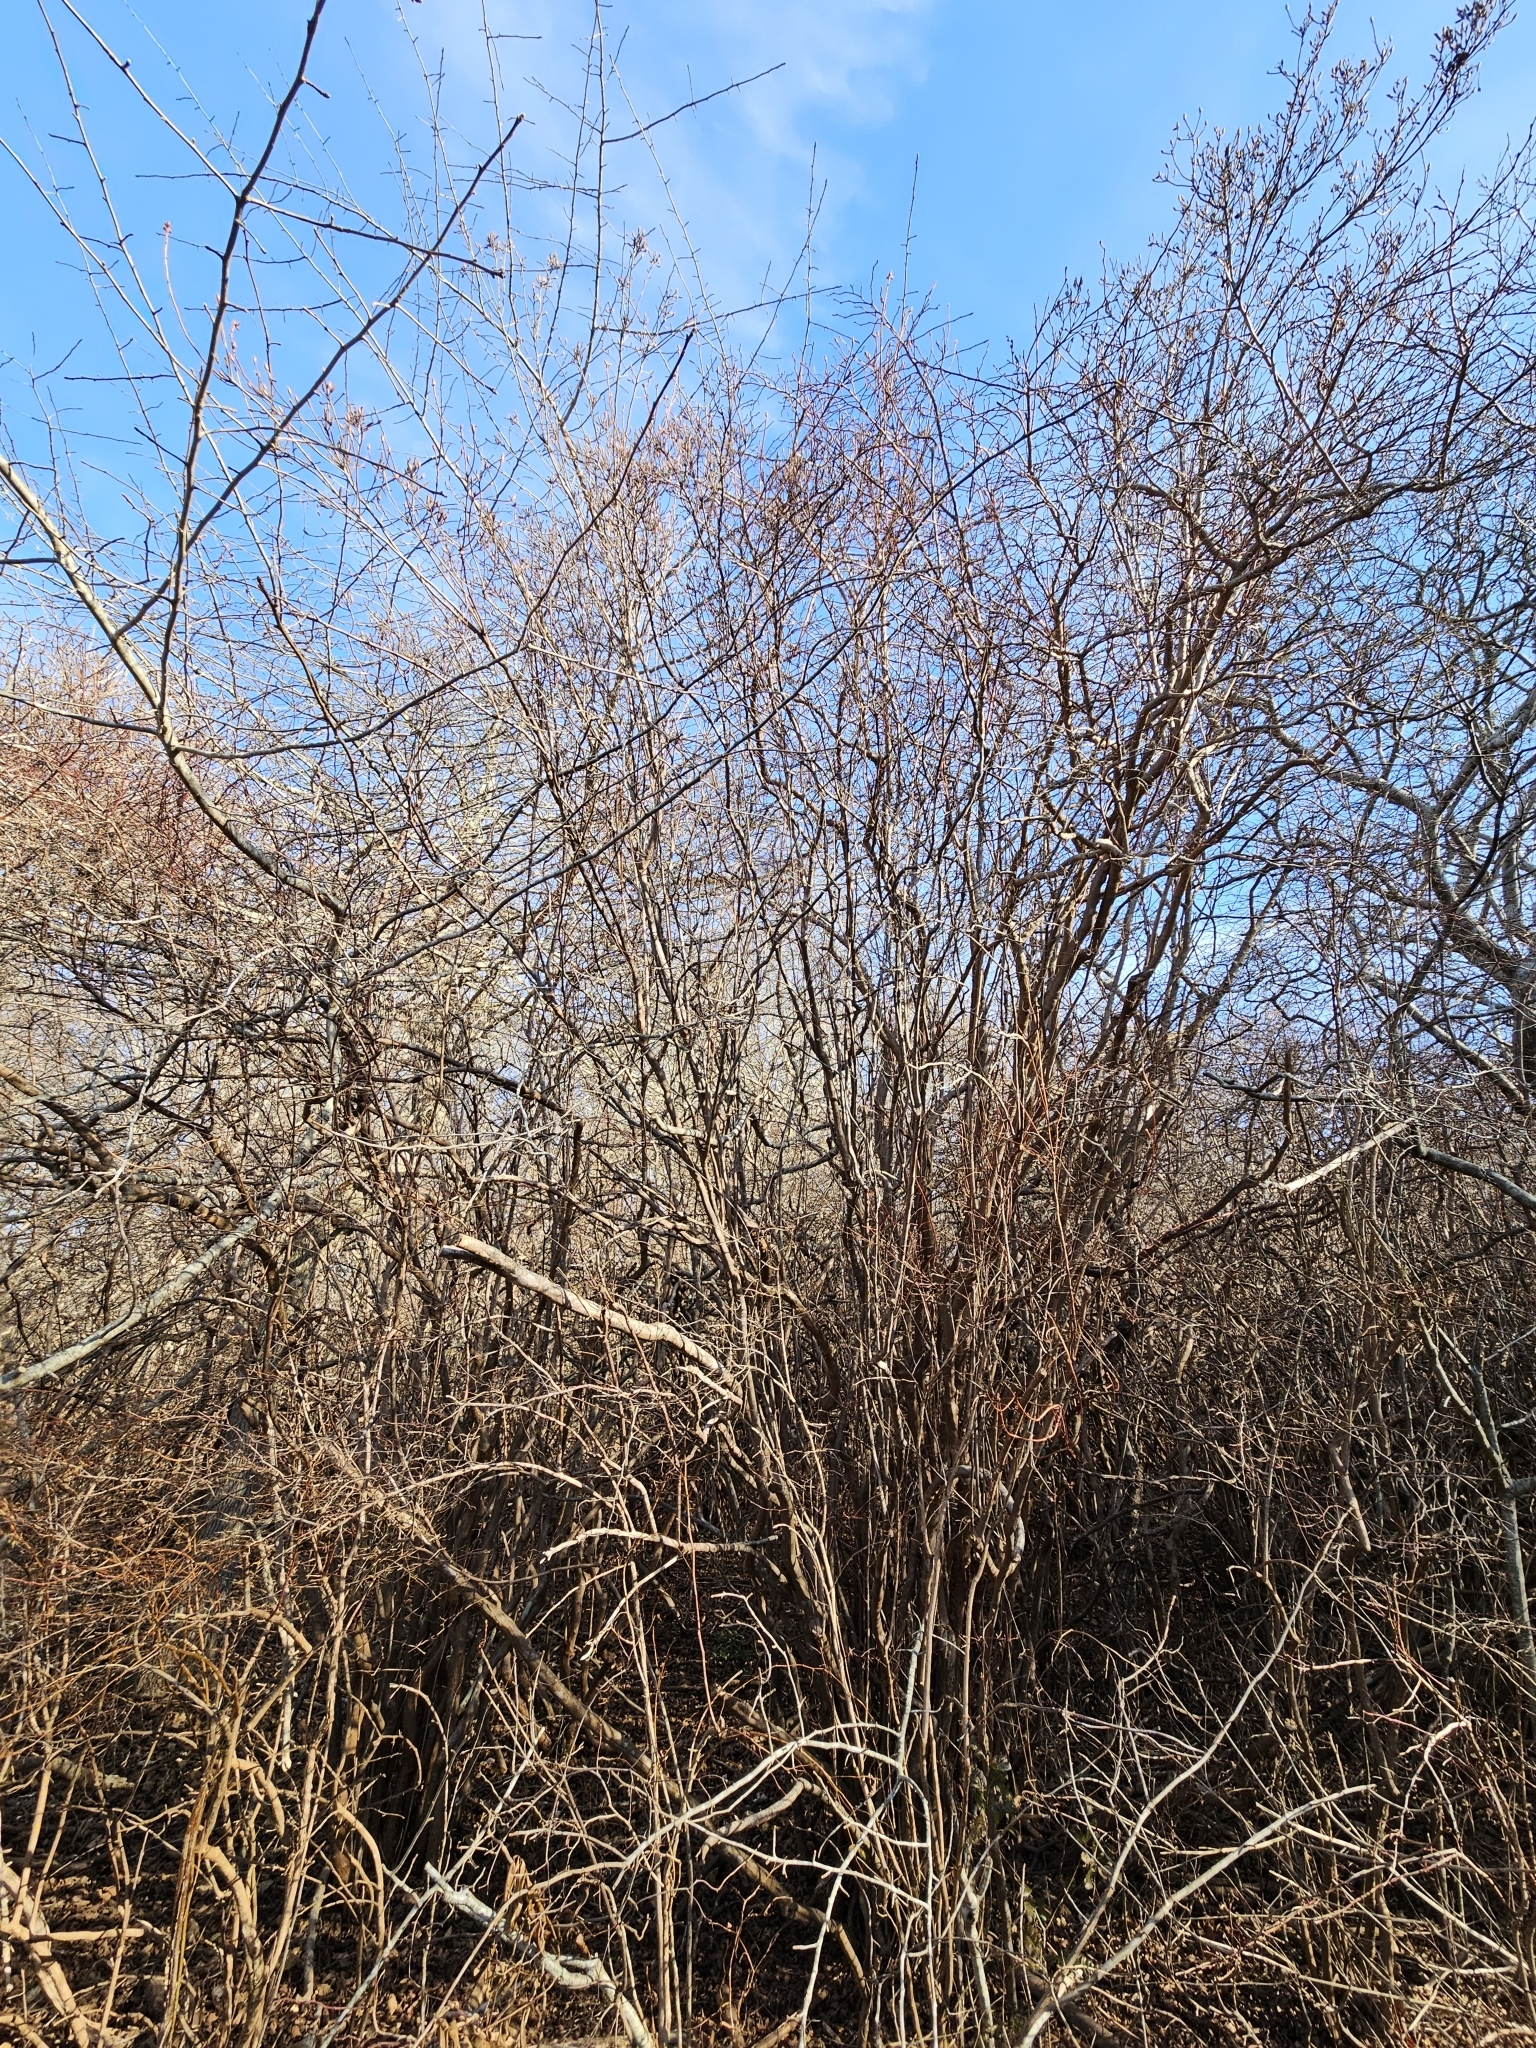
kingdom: Plantae
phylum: Tracheophyta
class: Magnoliopsida
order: Ericales
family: Ericaceae
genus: Rhododendron
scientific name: Rhododendron viscosum
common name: Clammy azalea
